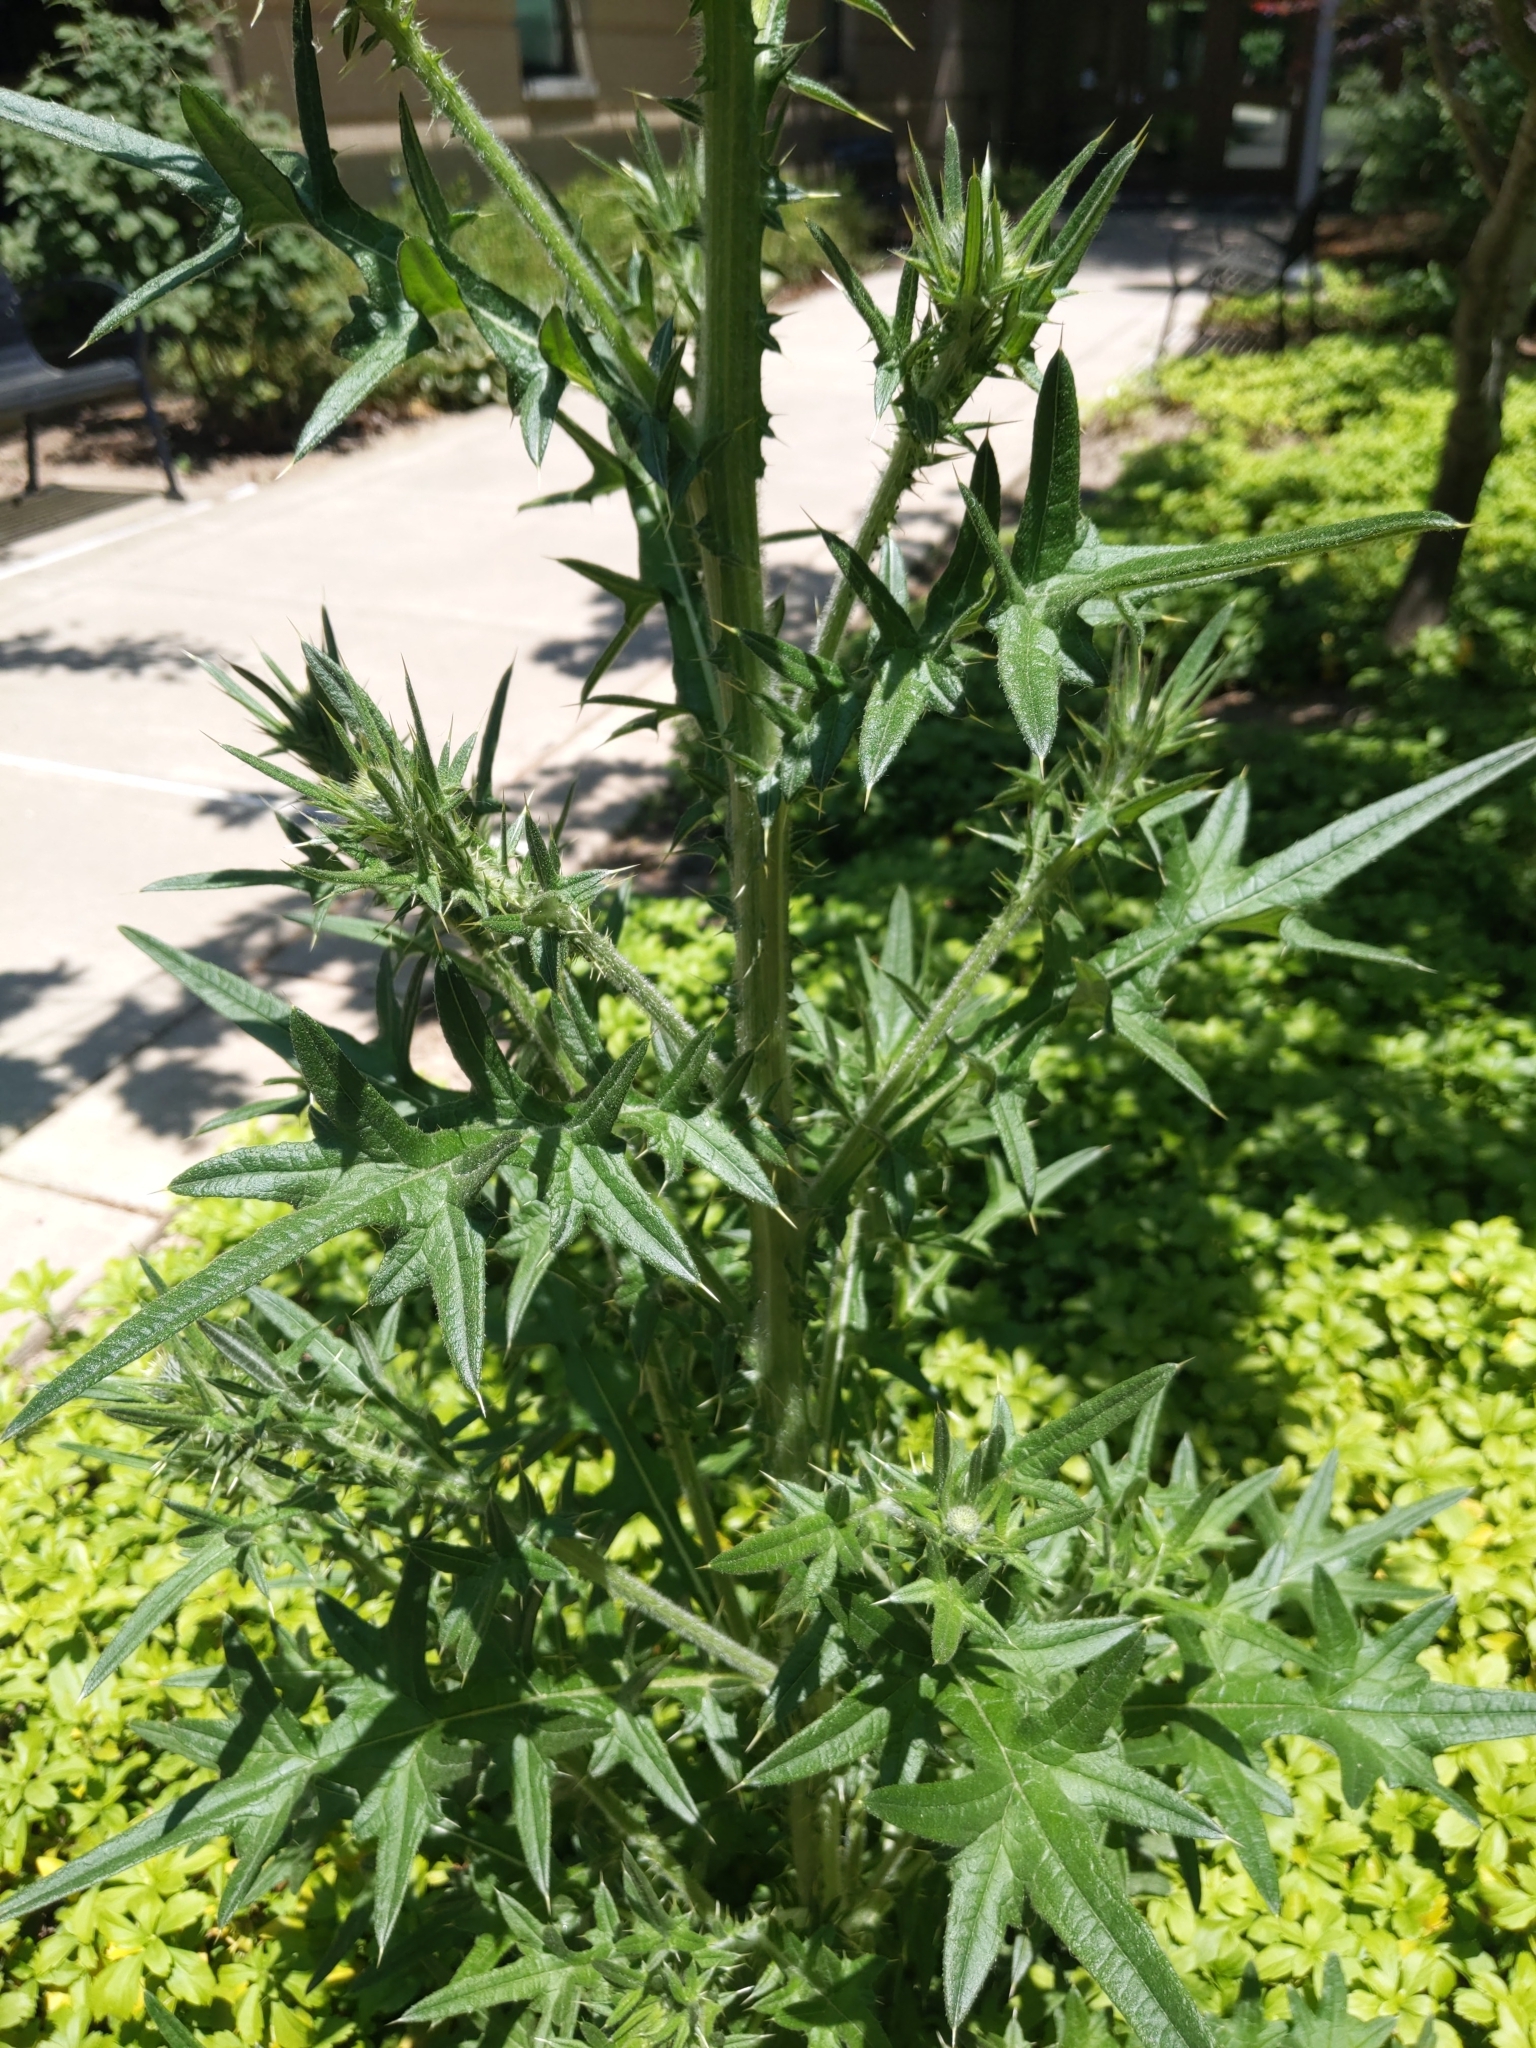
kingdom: Plantae
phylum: Tracheophyta
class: Magnoliopsida
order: Asterales
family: Asteraceae
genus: Cirsium
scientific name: Cirsium vulgare
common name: Bull thistle
